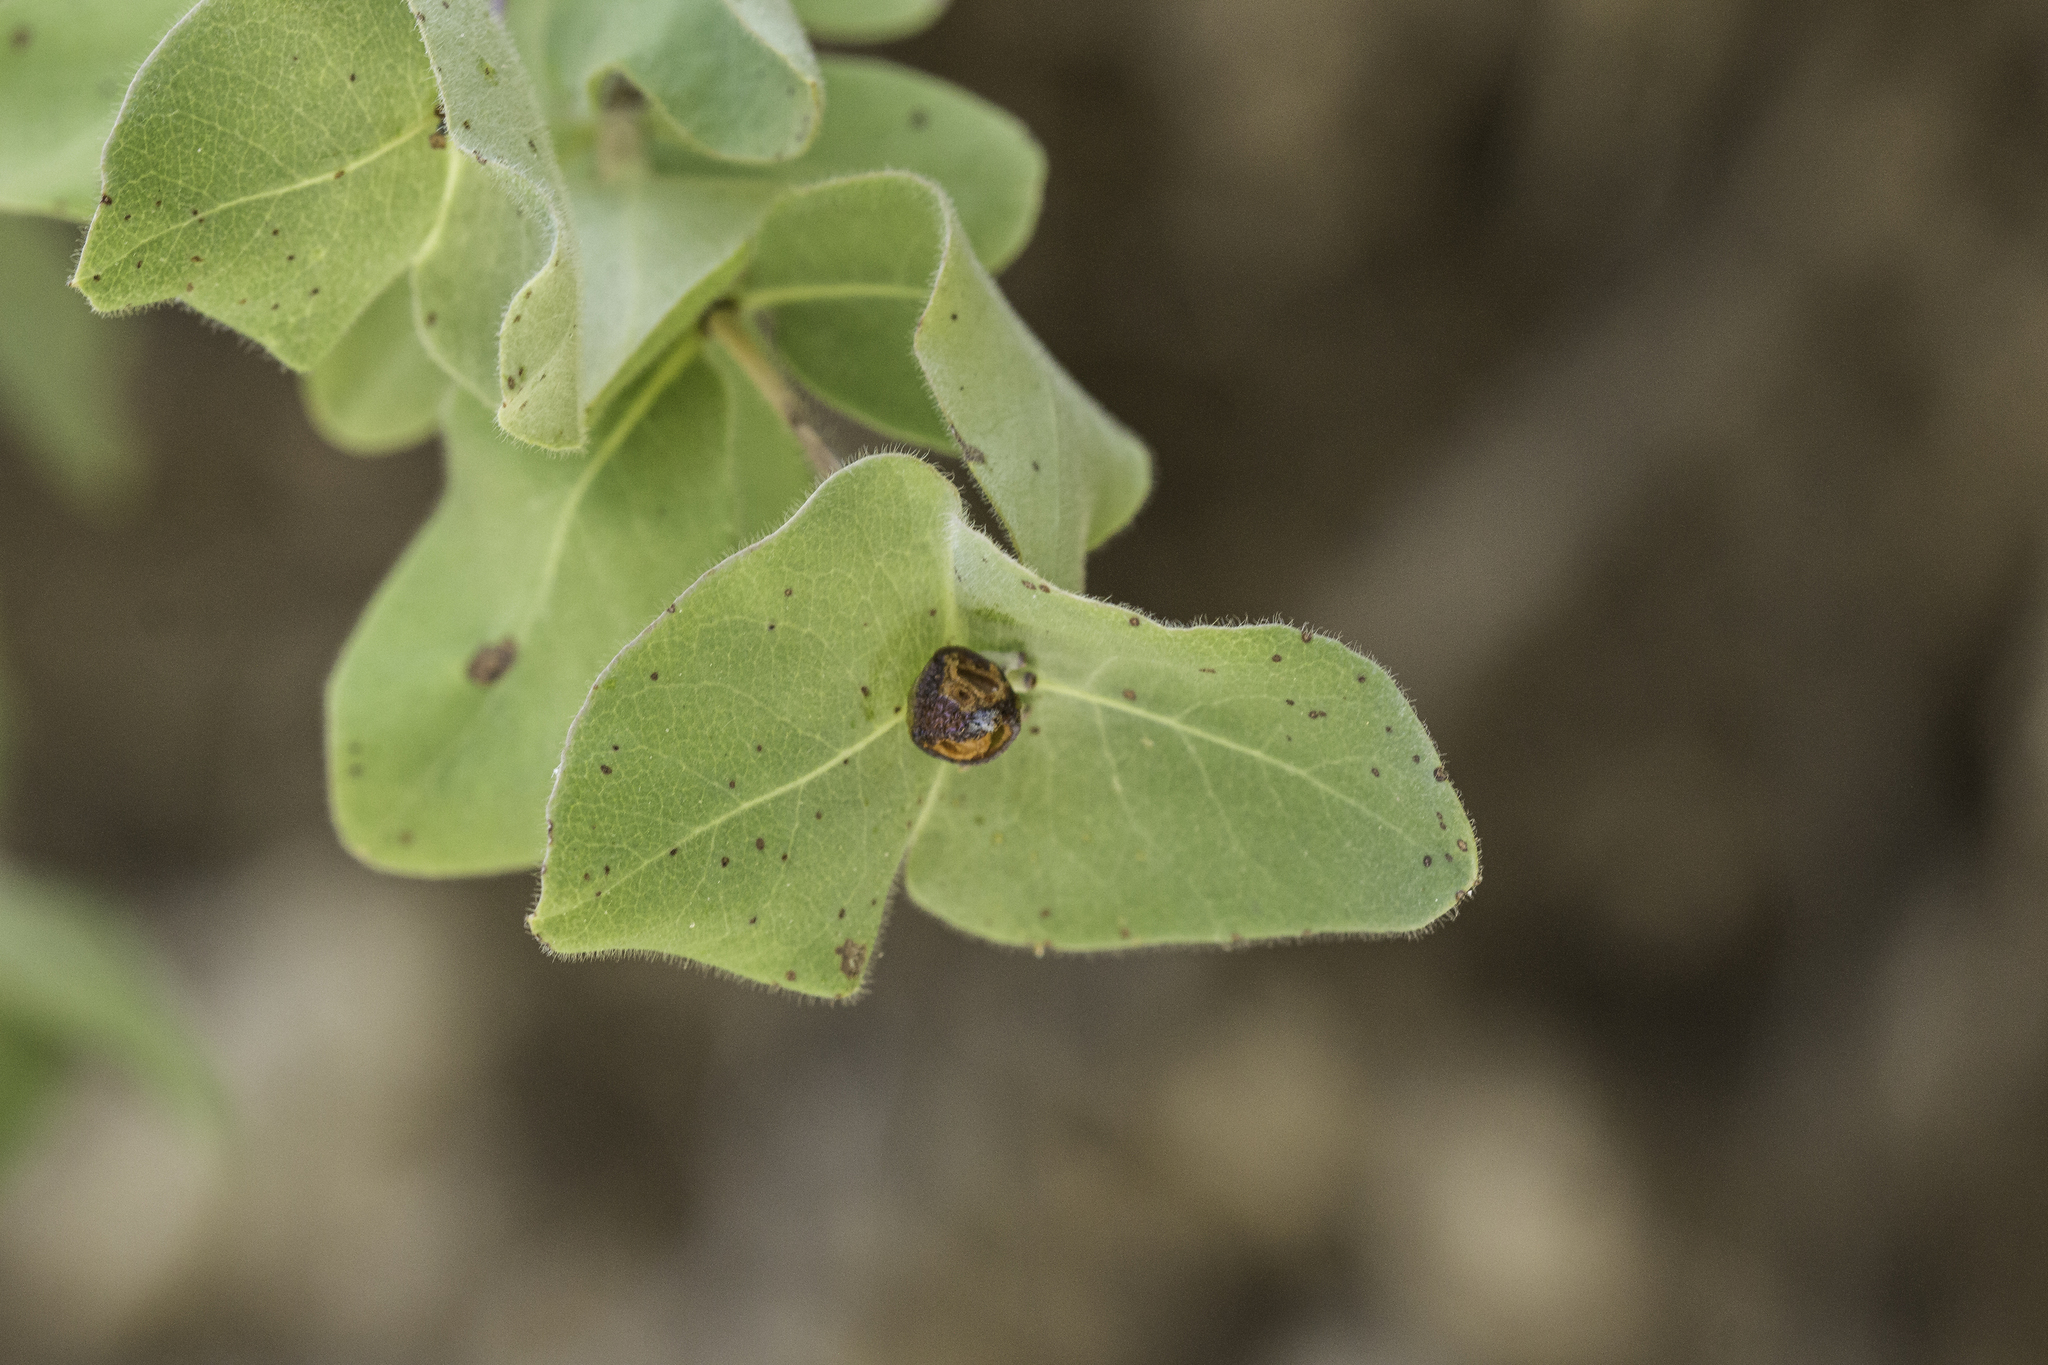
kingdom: Plantae
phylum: Tracheophyta
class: Magnoliopsida
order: Dipsacales
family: Caprifoliaceae
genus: Lonicera
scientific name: Lonicera arizonica
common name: Arizona honeysuckle
